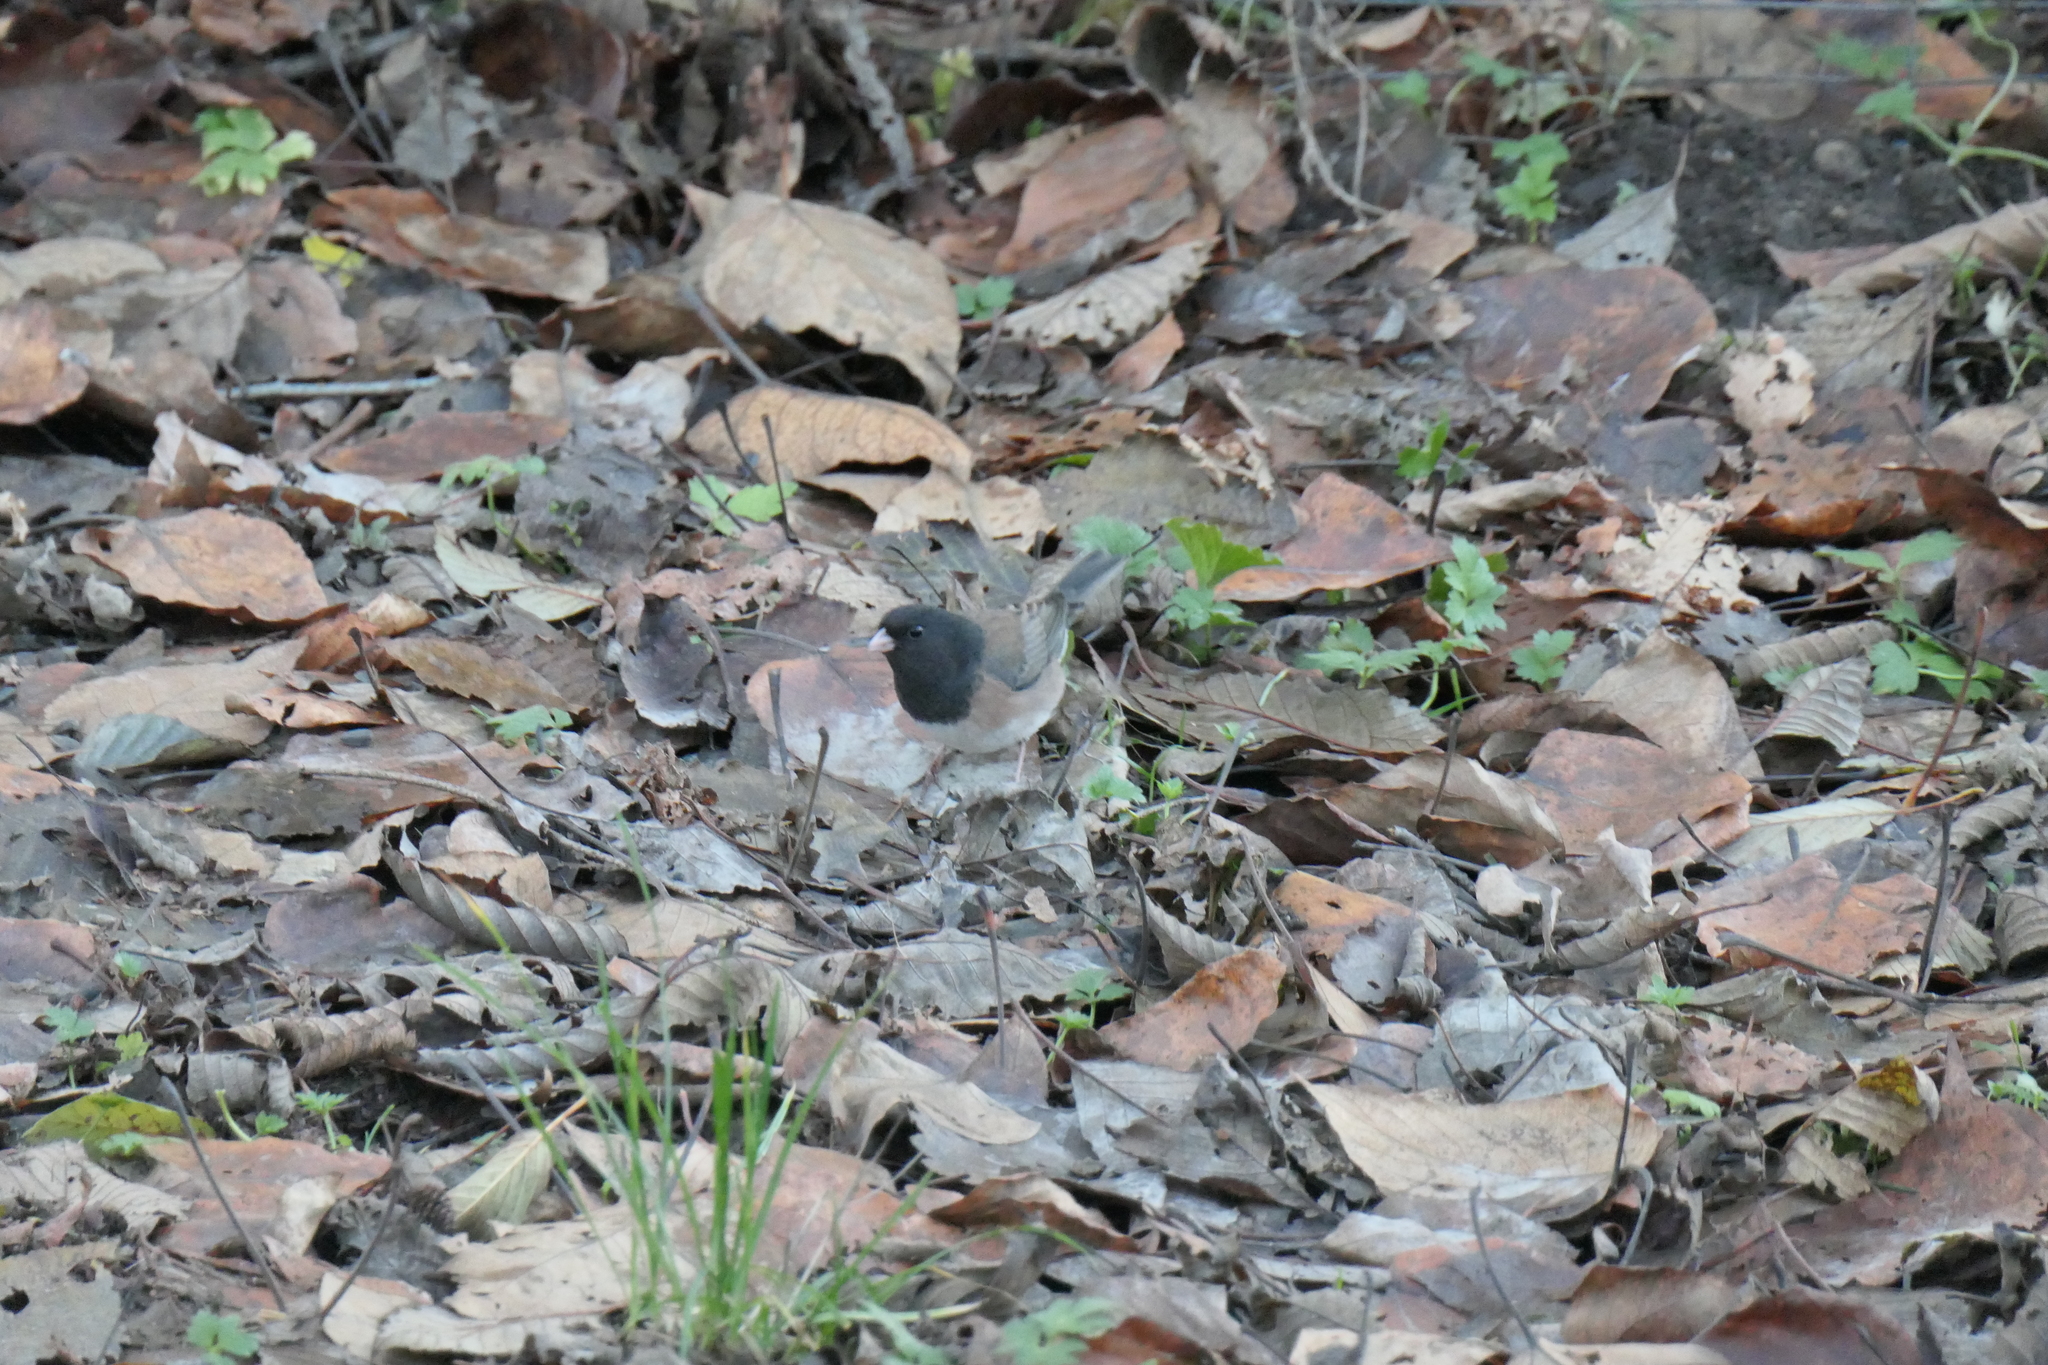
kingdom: Animalia
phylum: Chordata
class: Aves
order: Passeriformes
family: Passerellidae
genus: Junco
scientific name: Junco hyemalis
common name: Dark-eyed junco
